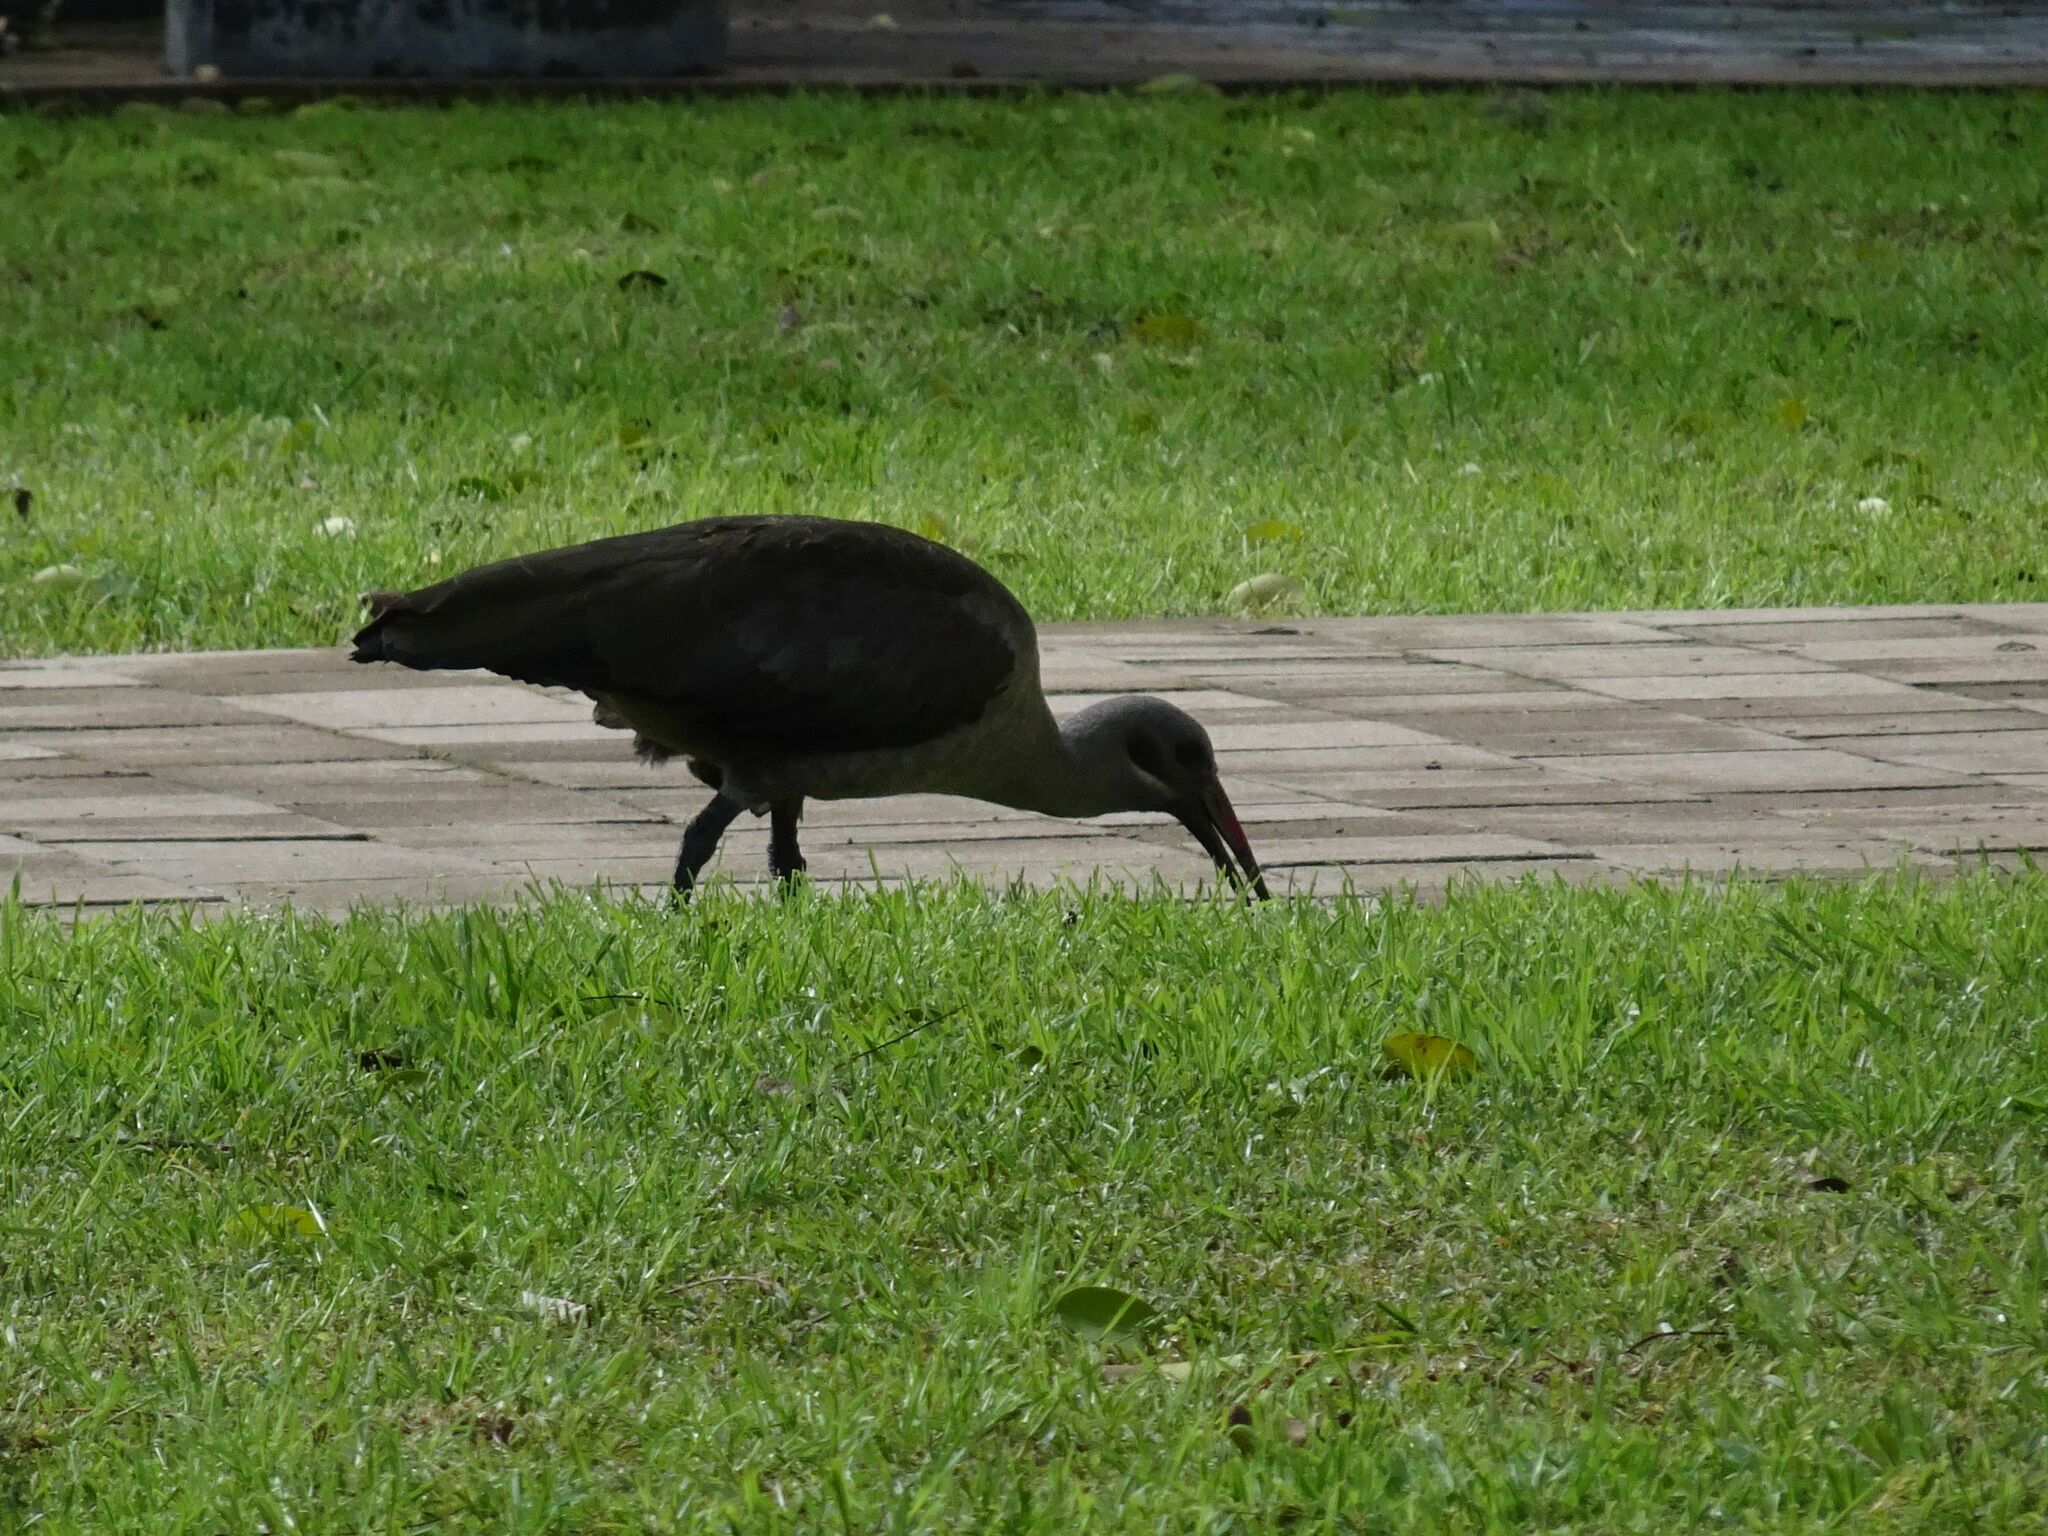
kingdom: Animalia
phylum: Chordata
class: Aves
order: Pelecaniformes
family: Threskiornithidae
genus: Bostrychia
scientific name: Bostrychia hagedash
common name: Hadada ibis
